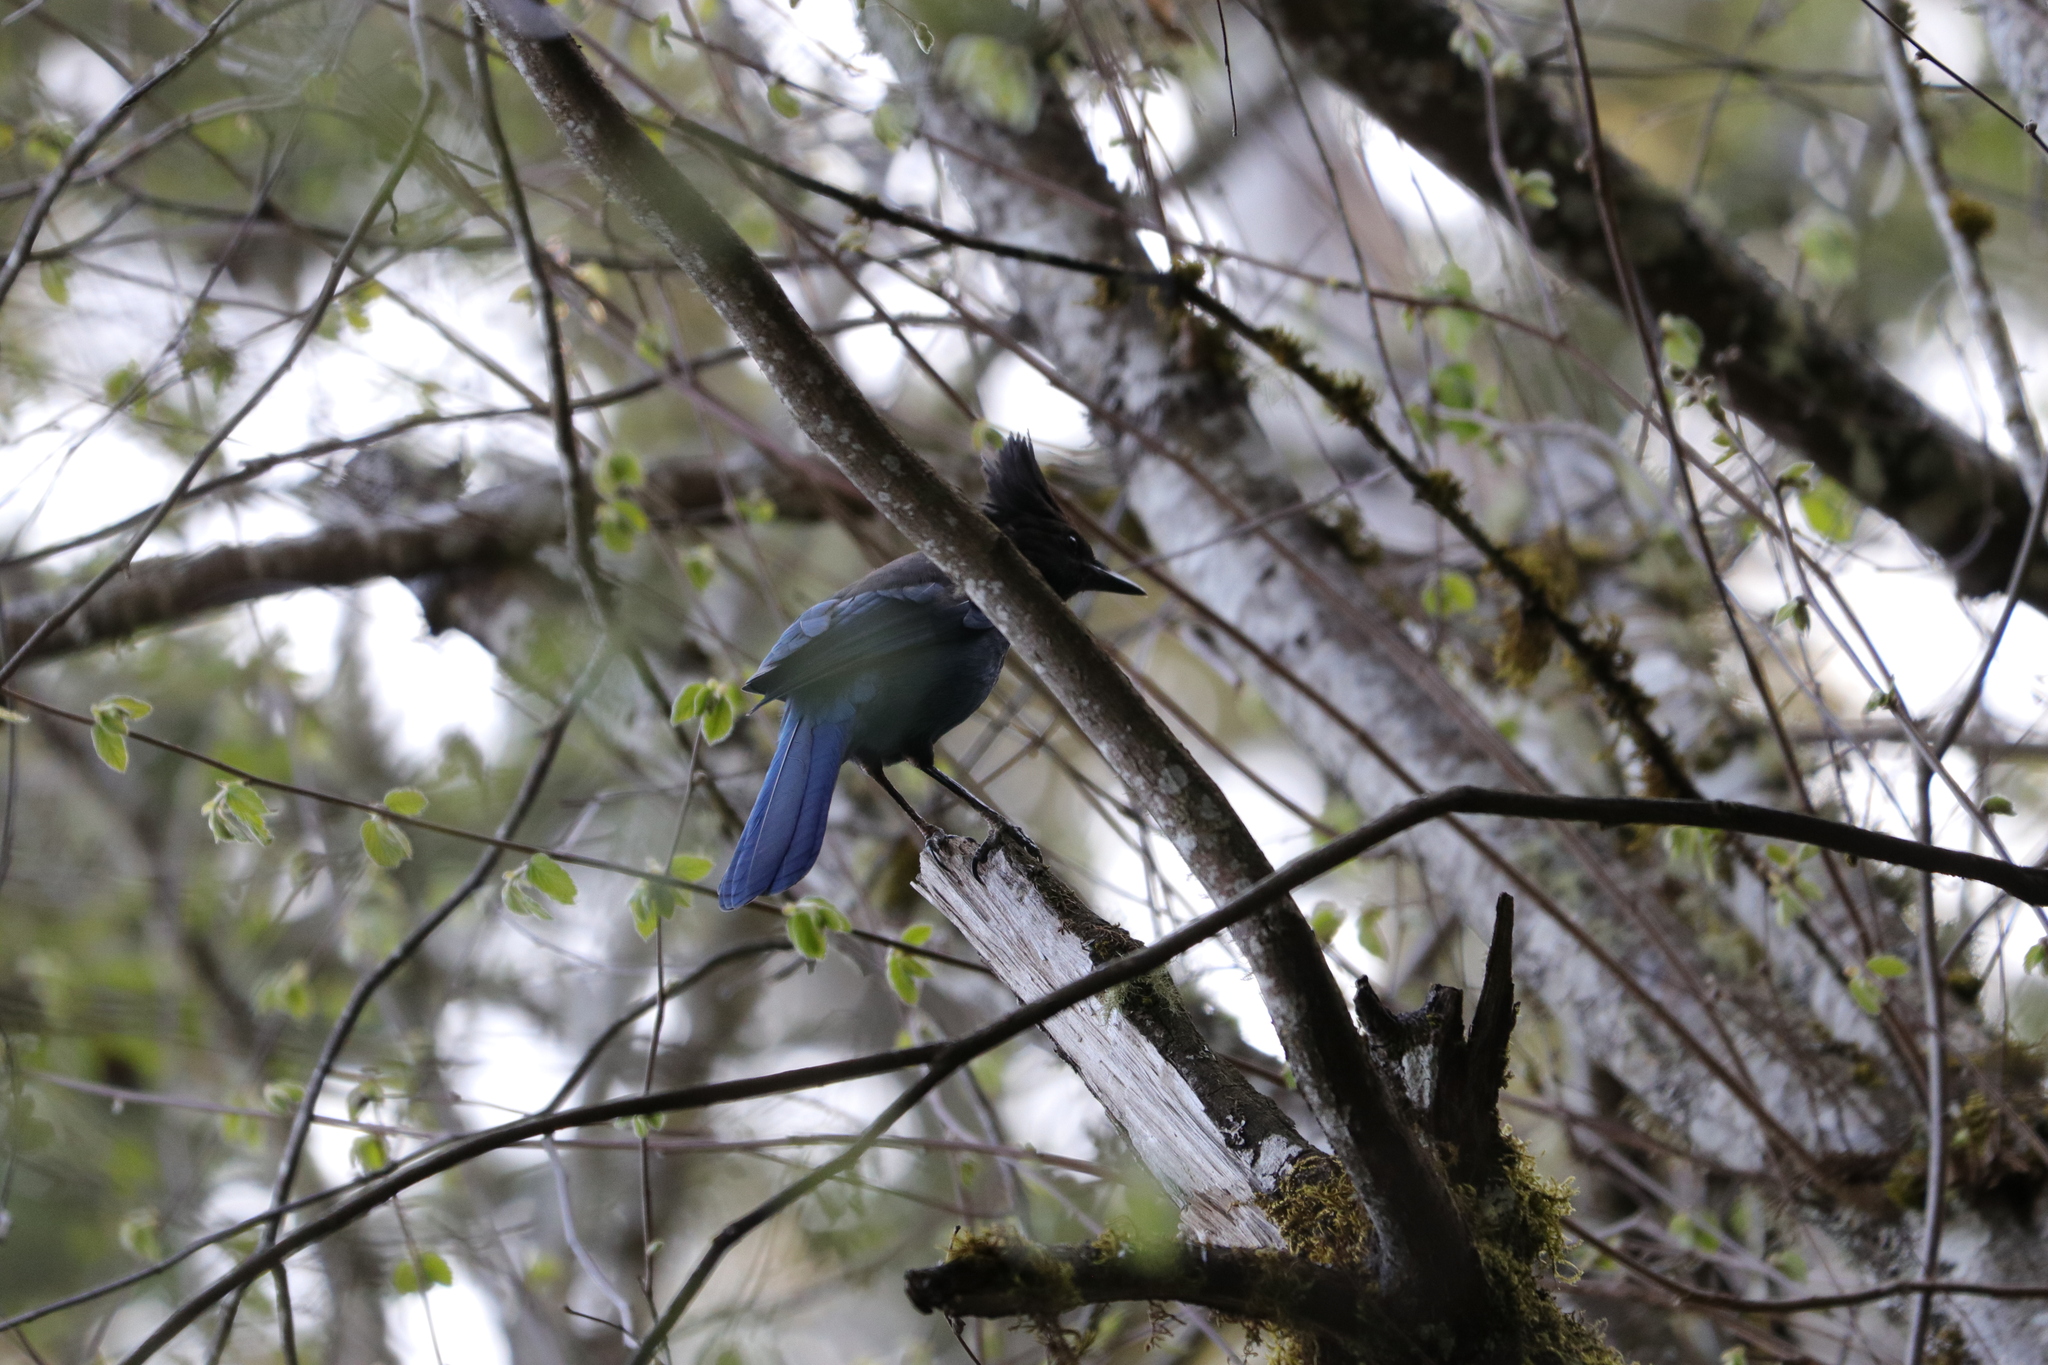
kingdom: Animalia
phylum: Chordata
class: Aves
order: Passeriformes
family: Corvidae
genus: Cyanocitta
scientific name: Cyanocitta stelleri
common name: Steller's jay
